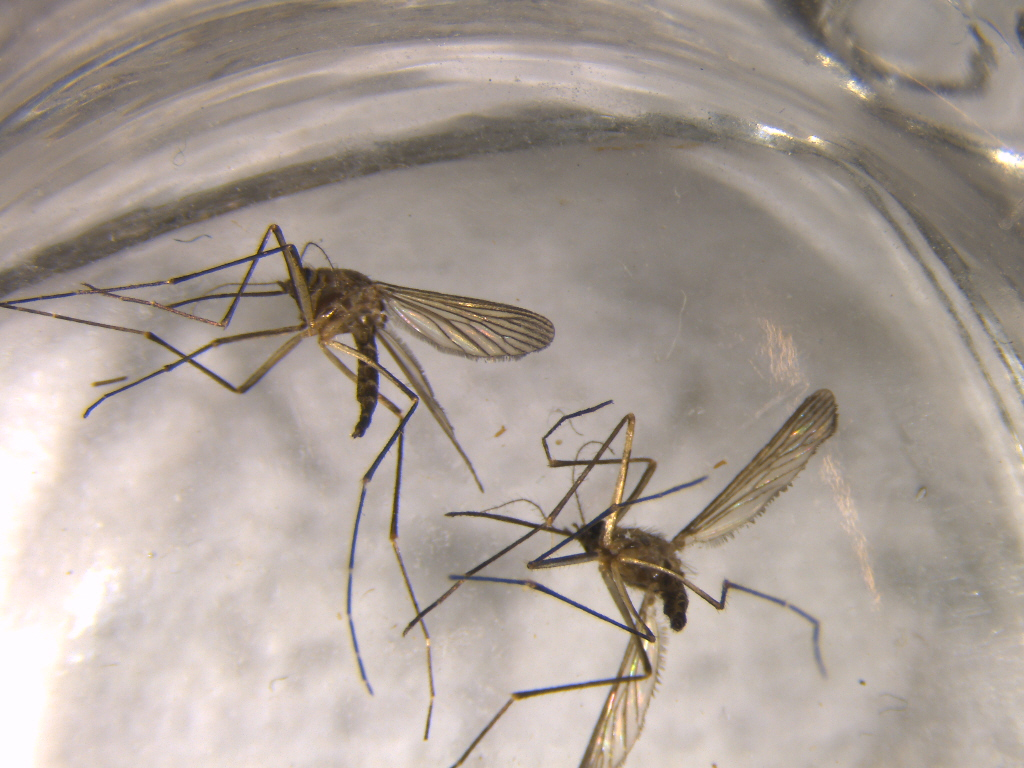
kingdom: Animalia
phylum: Arthropoda
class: Insecta
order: Diptera
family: Culicidae
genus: Aedes
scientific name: Aedes antipodeus
